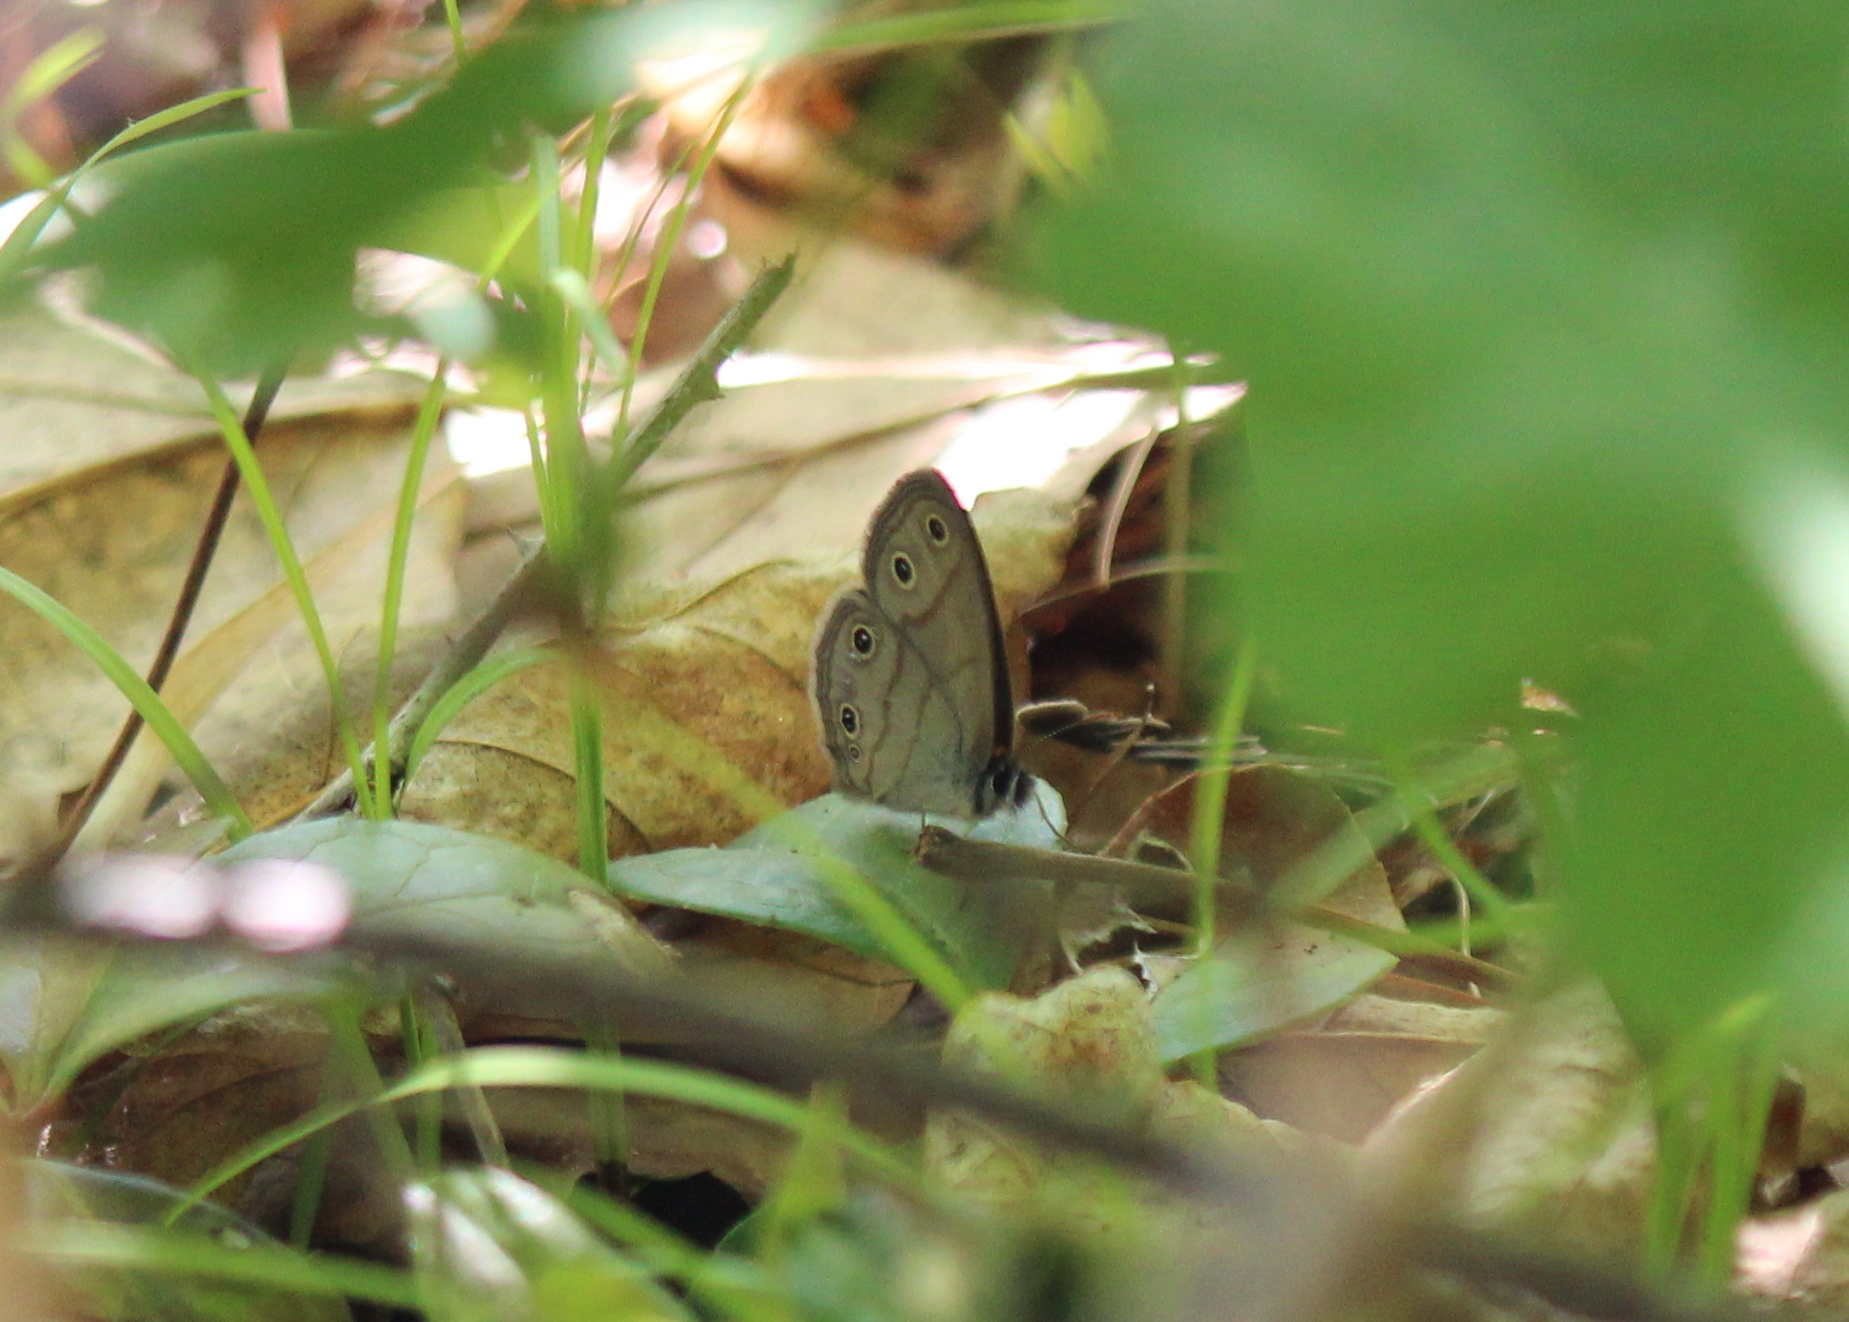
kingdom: Animalia
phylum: Arthropoda
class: Insecta
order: Lepidoptera
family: Nymphalidae
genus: Euptychia
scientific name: Euptychia cymela
